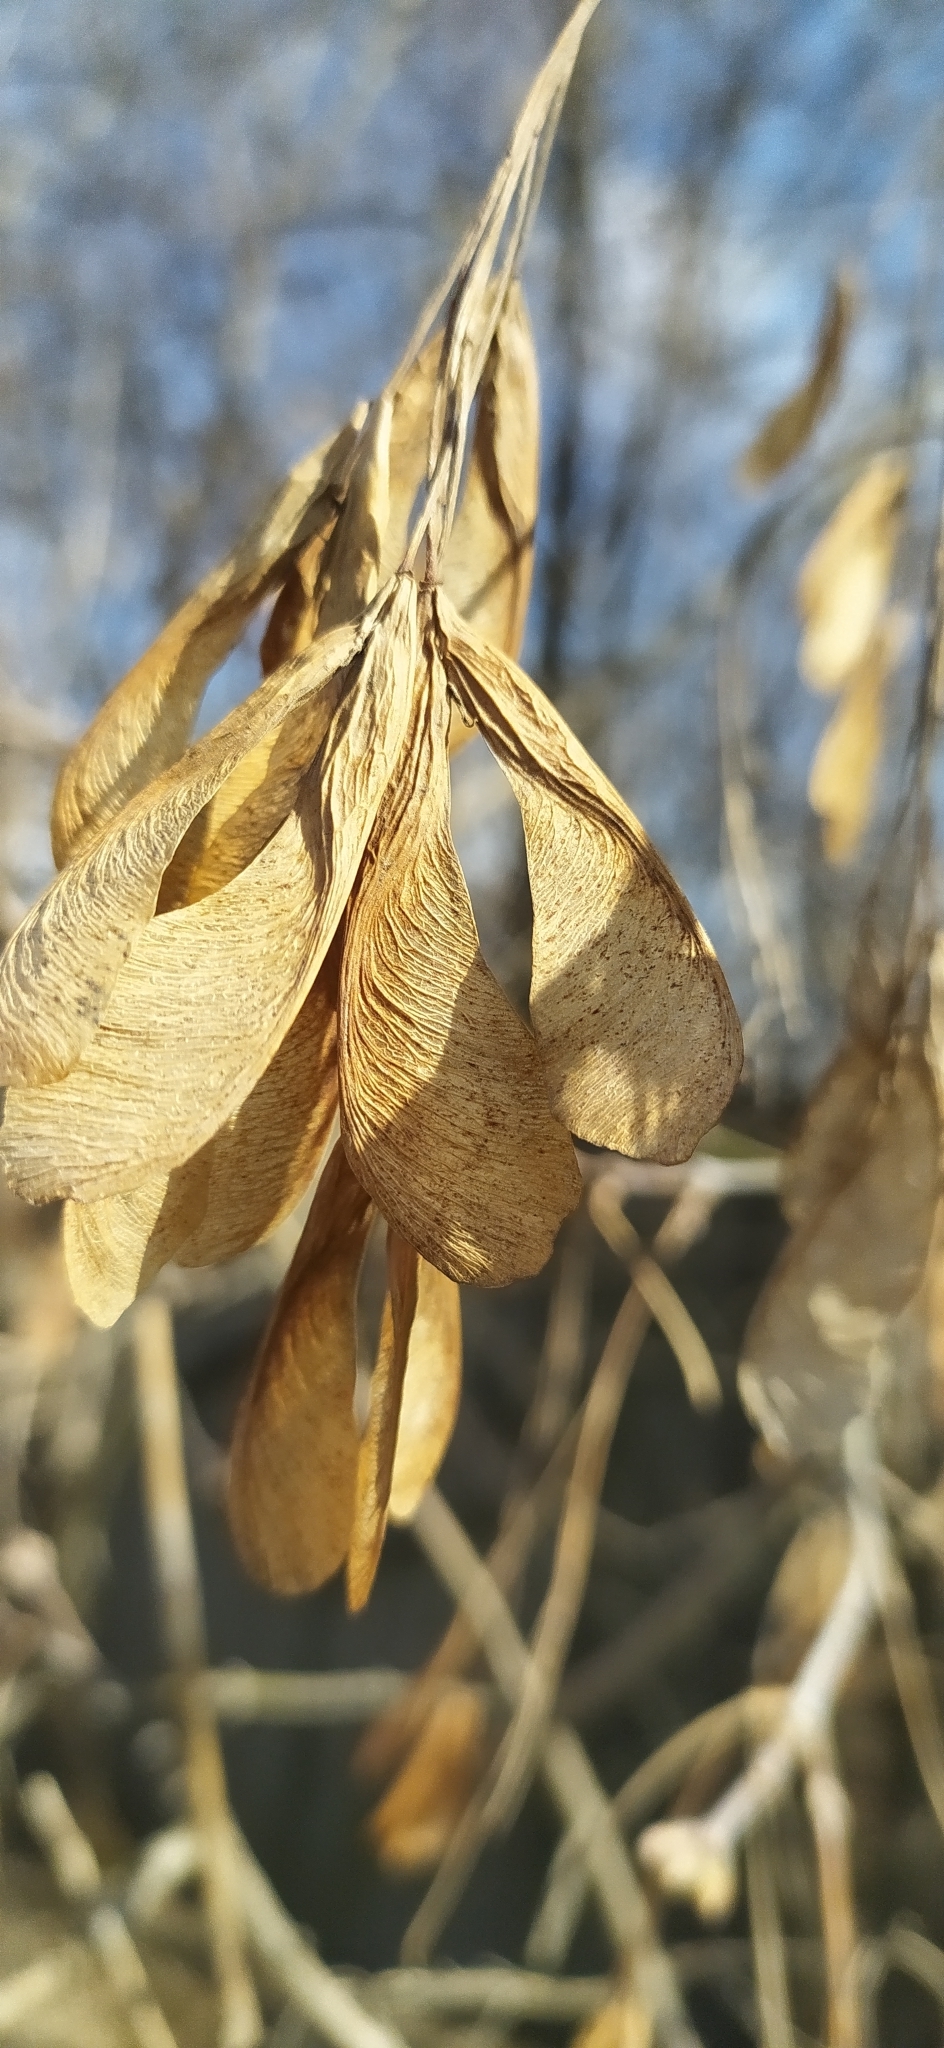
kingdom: Plantae
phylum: Tracheophyta
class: Magnoliopsida
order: Sapindales
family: Sapindaceae
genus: Acer
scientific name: Acer negundo
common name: Ashleaf maple
